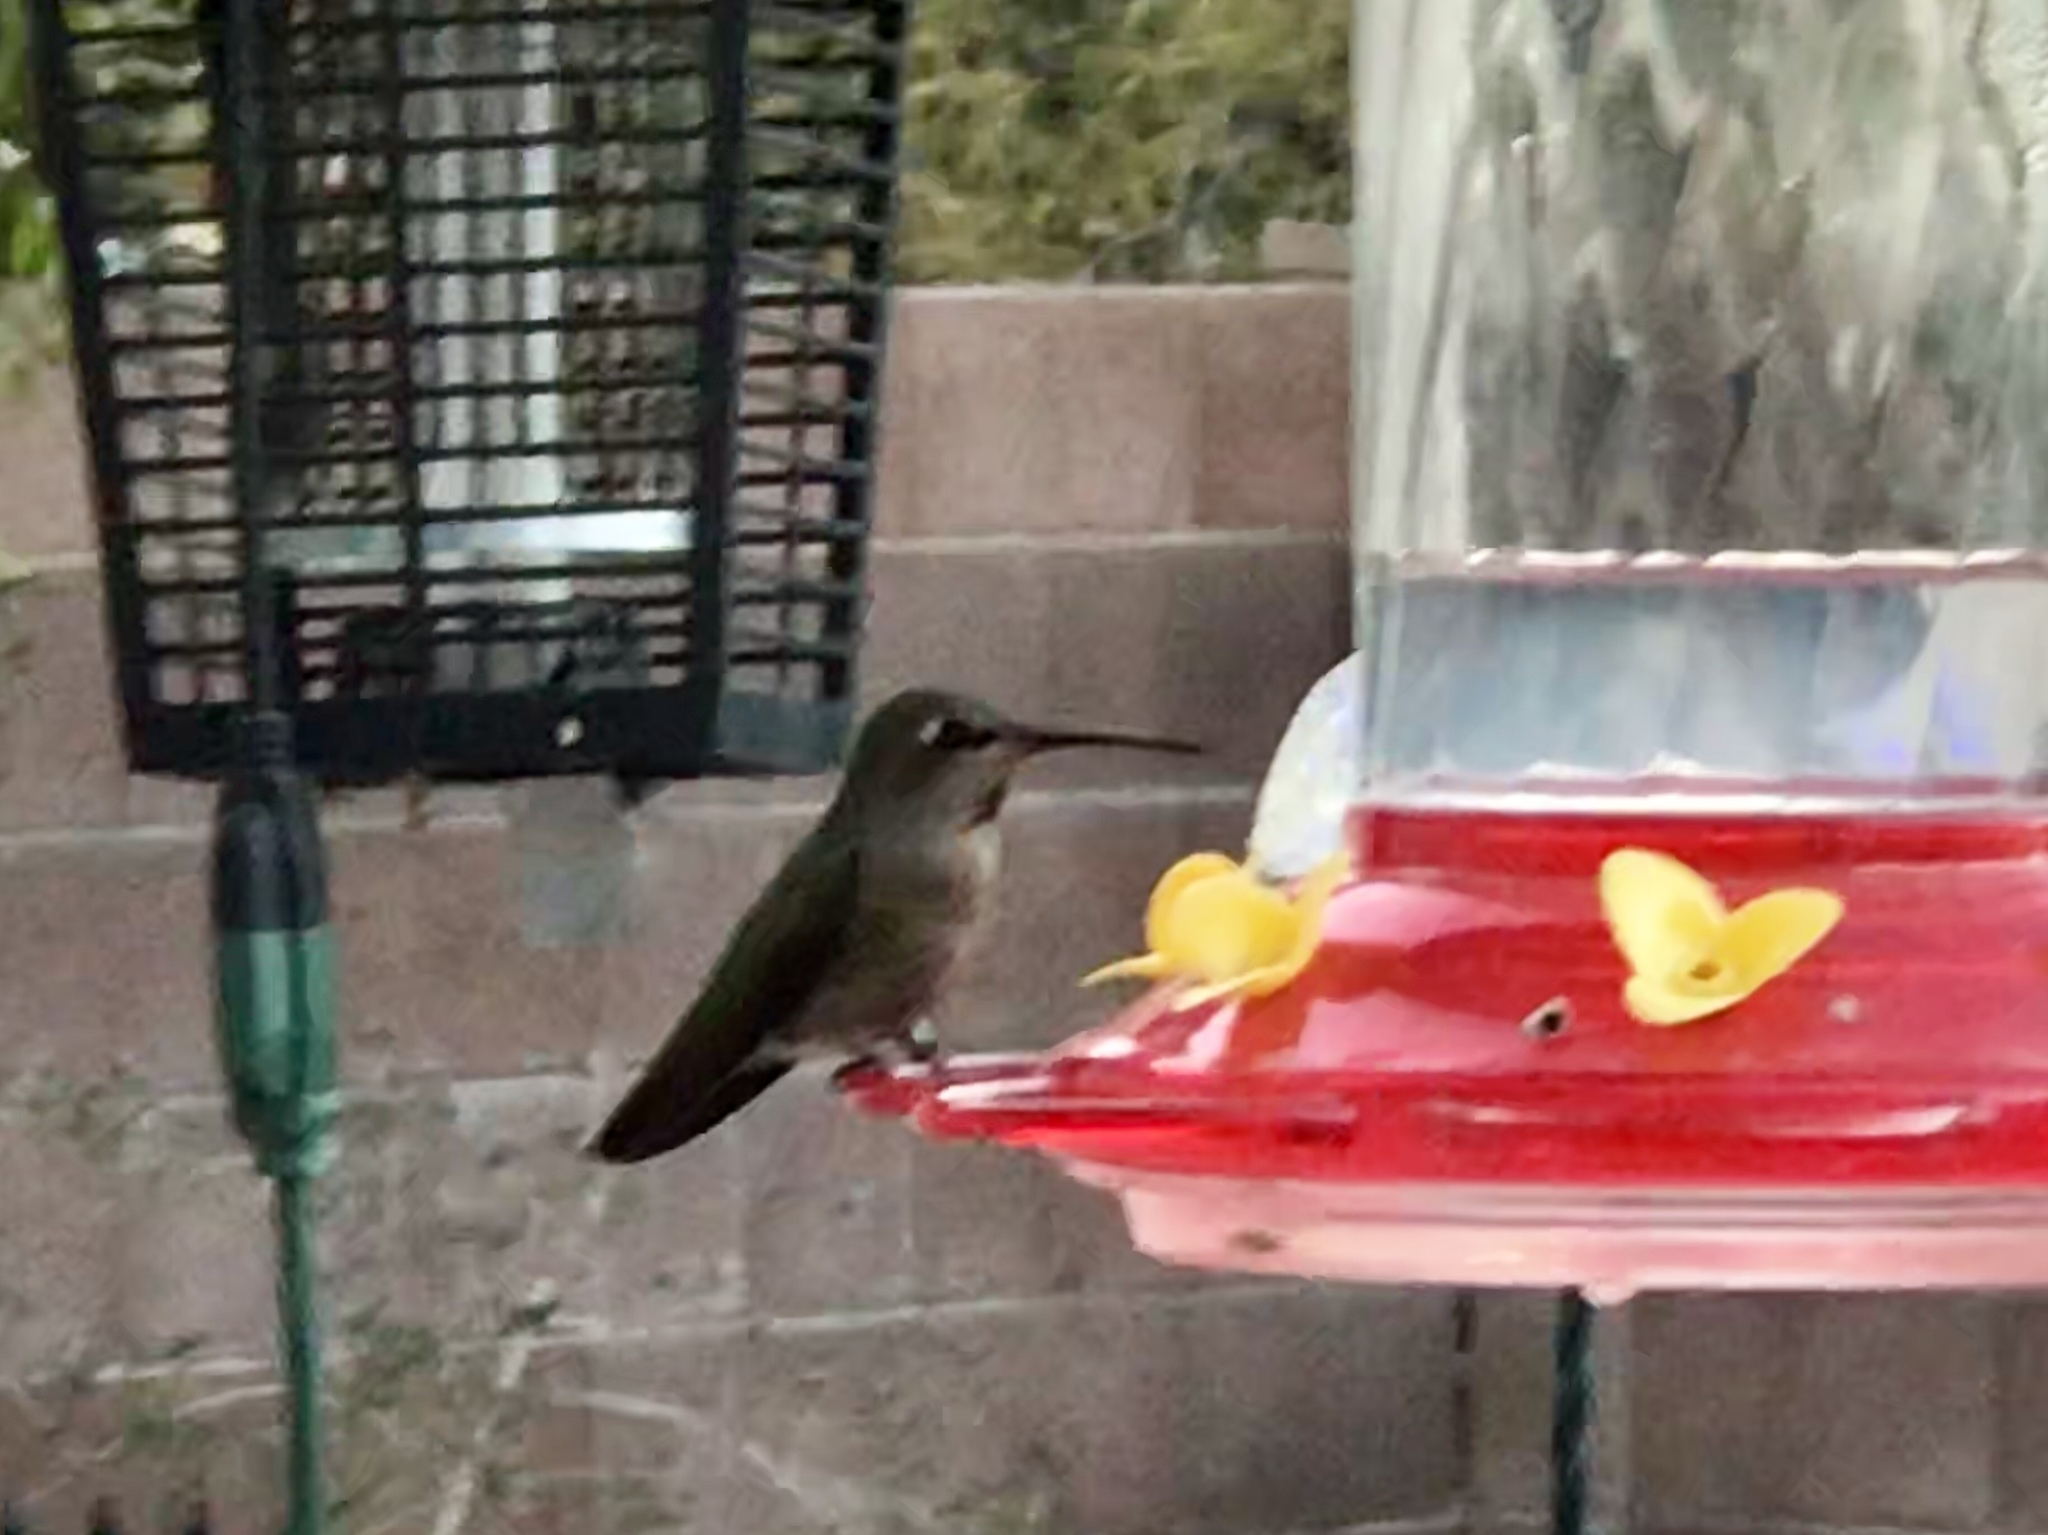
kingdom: Animalia
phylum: Chordata
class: Aves
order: Apodiformes
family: Trochilidae
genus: Calypte
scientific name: Calypte anna
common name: Anna's hummingbird
